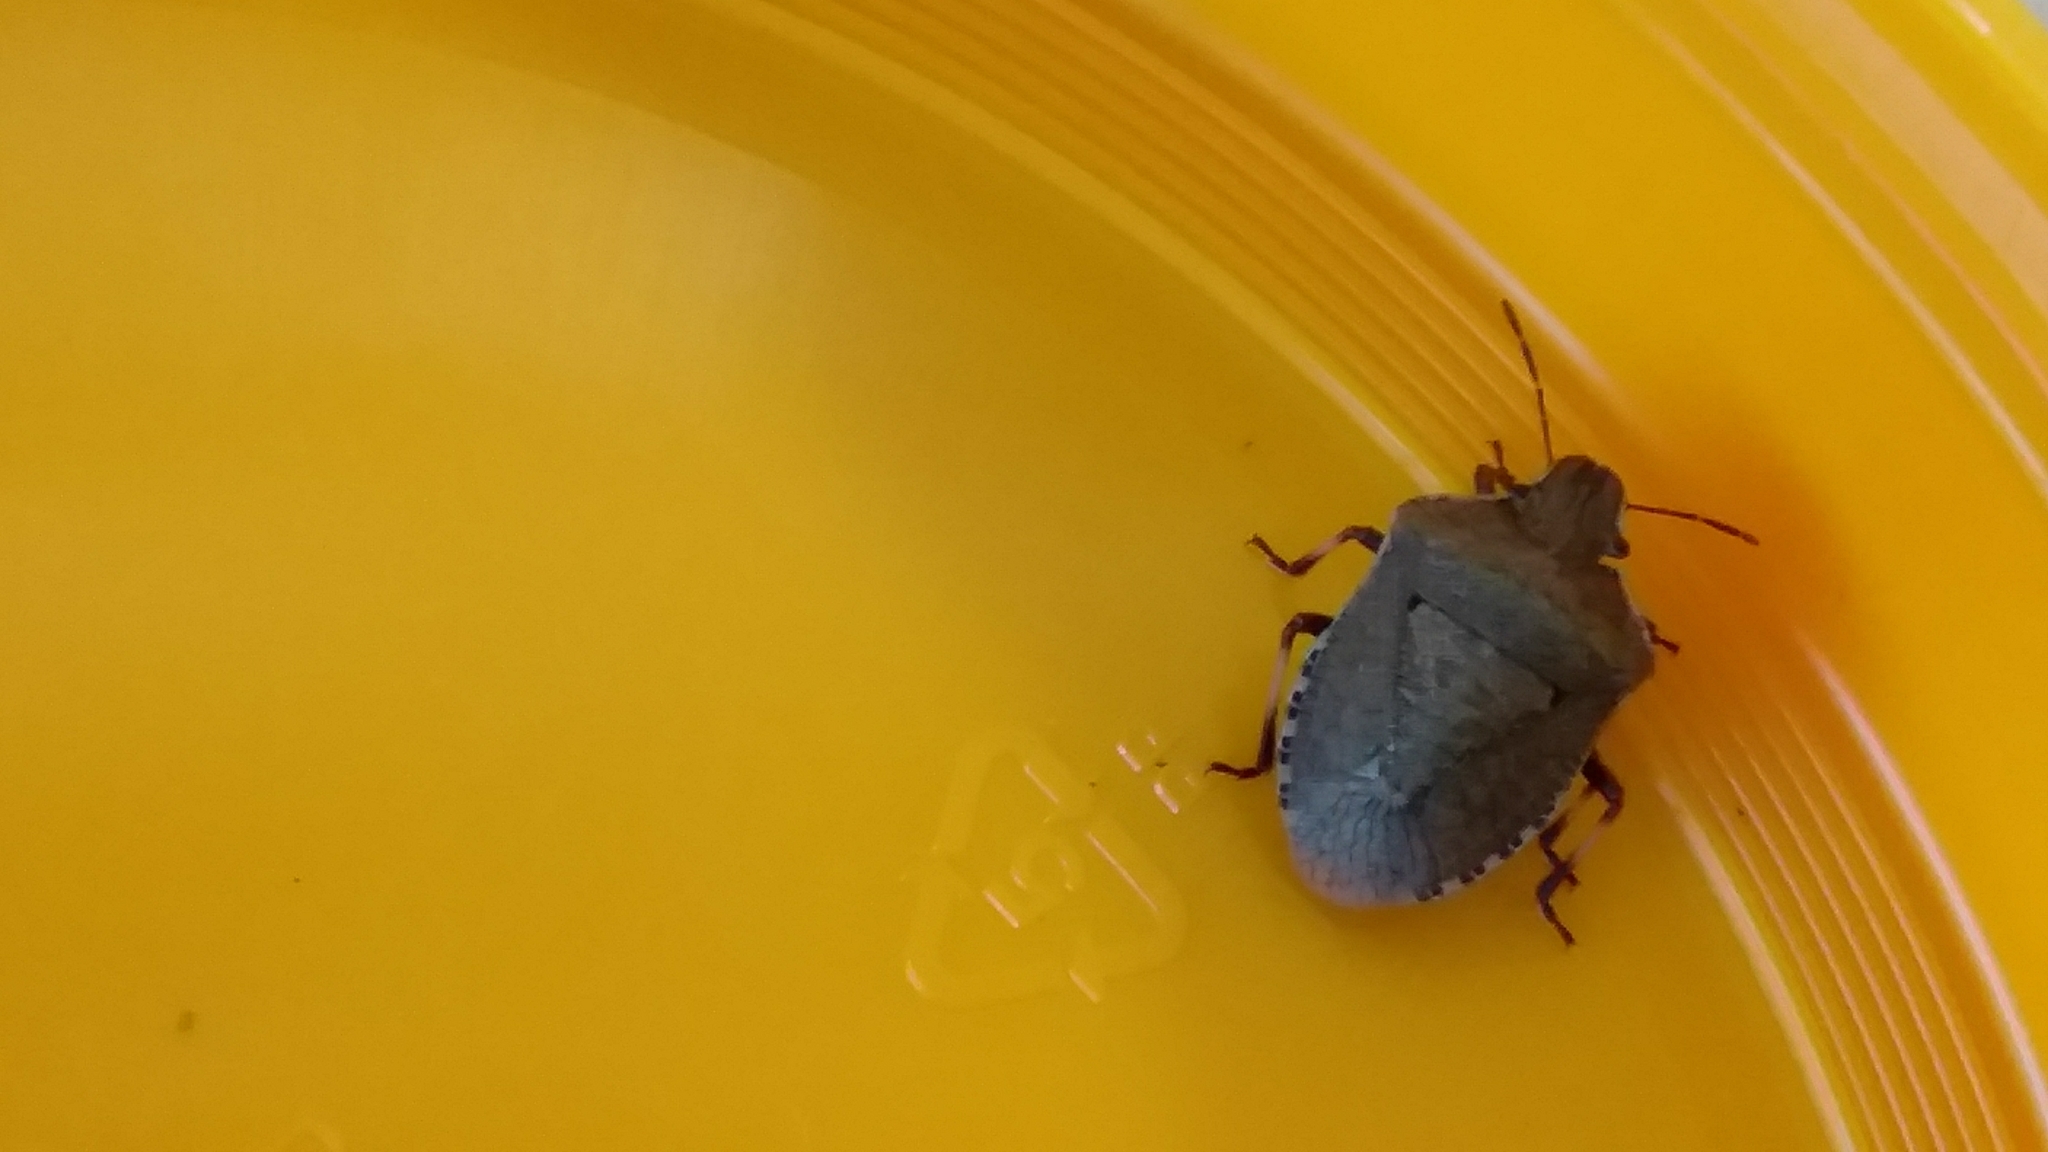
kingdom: Animalia
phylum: Arthropoda
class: Insecta
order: Hemiptera
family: Pentatomidae
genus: Dictyotus
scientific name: Dictyotus caenosus
